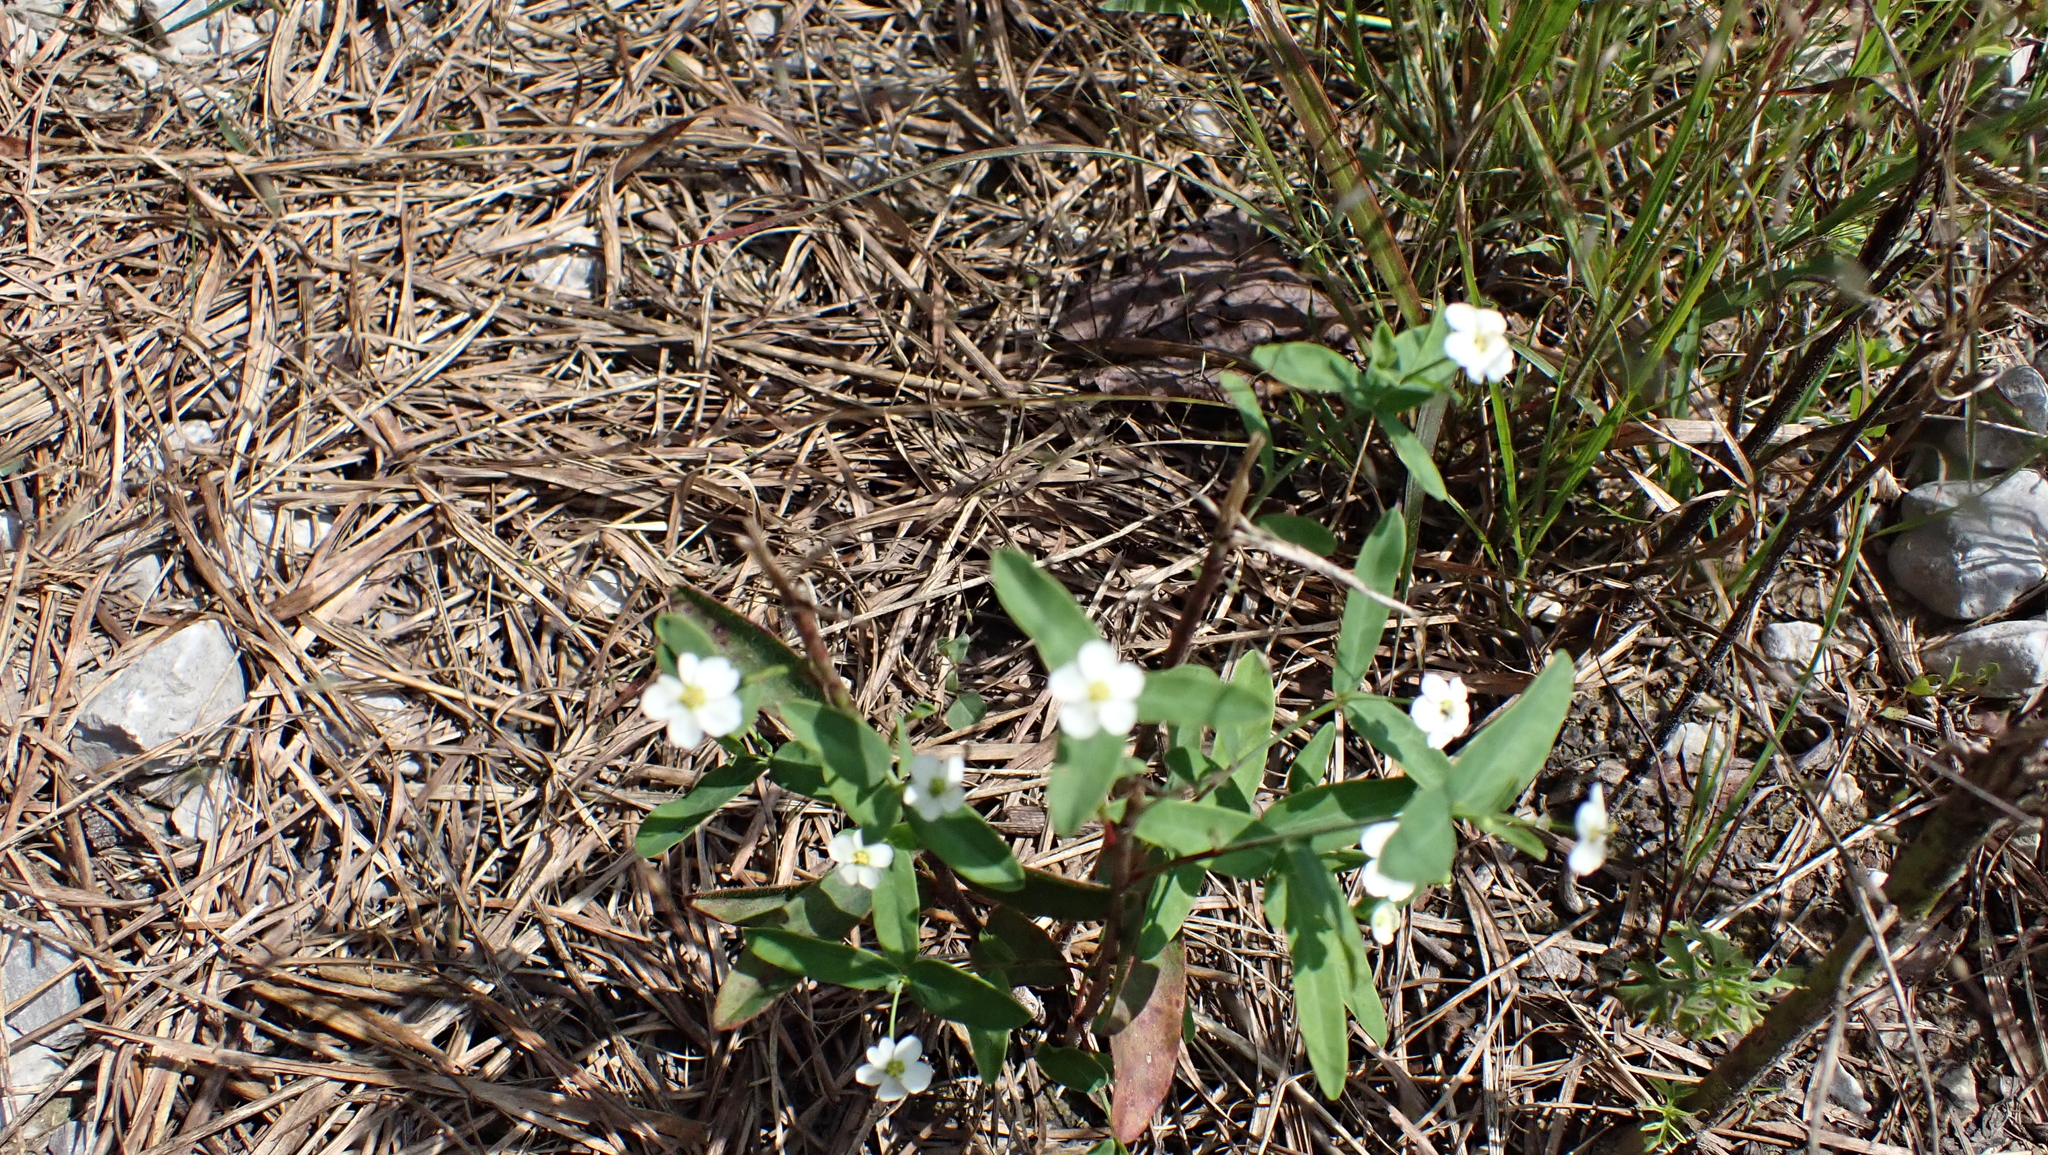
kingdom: Plantae
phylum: Tracheophyta
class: Magnoliopsida
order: Malpighiales
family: Euphorbiaceae
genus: Euphorbia
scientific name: Euphorbia corollata
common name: Flowering spurge
